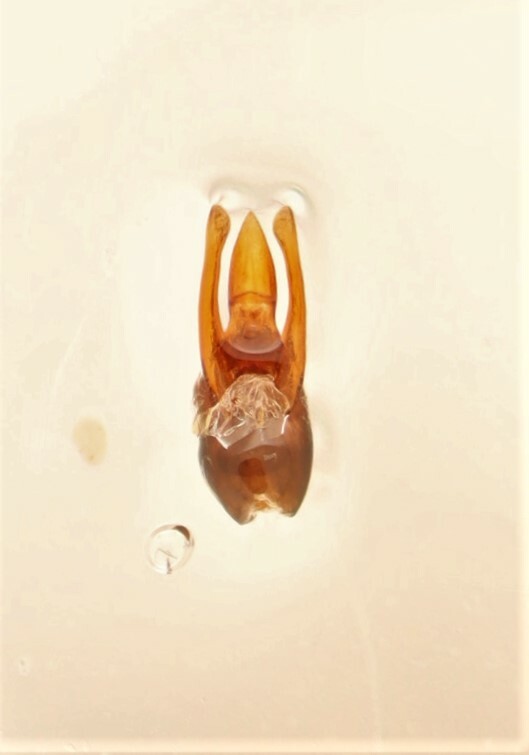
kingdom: Animalia
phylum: Arthropoda
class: Insecta
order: Coleoptera
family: Staphylinidae
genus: Stenus
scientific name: Stenus morio
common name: Rove beetle
